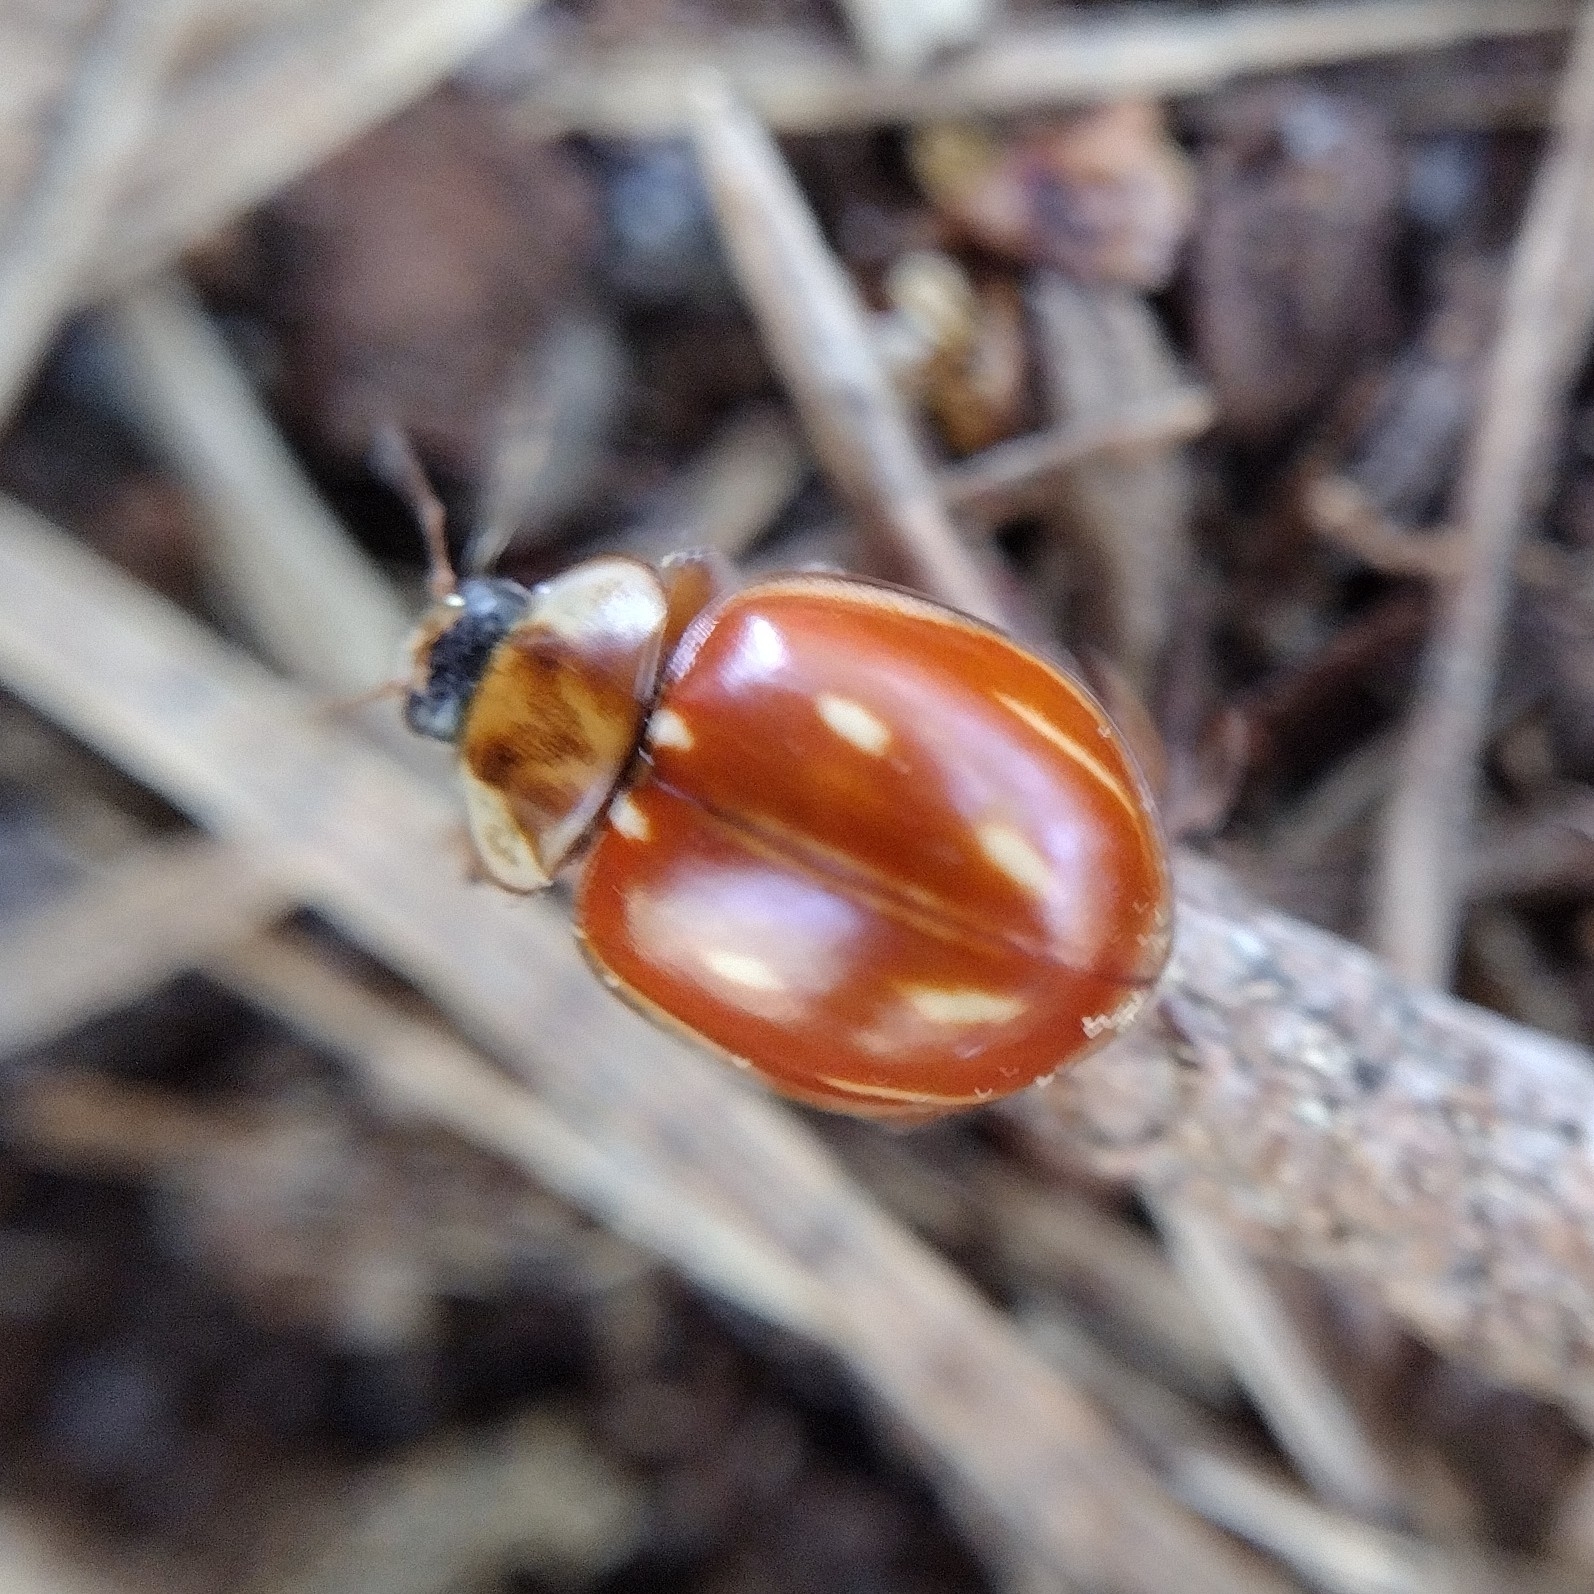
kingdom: Animalia
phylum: Arthropoda
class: Insecta
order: Coleoptera
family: Coccinellidae
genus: Myzia
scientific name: Myzia oblongoguttata
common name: Striped ladybird
